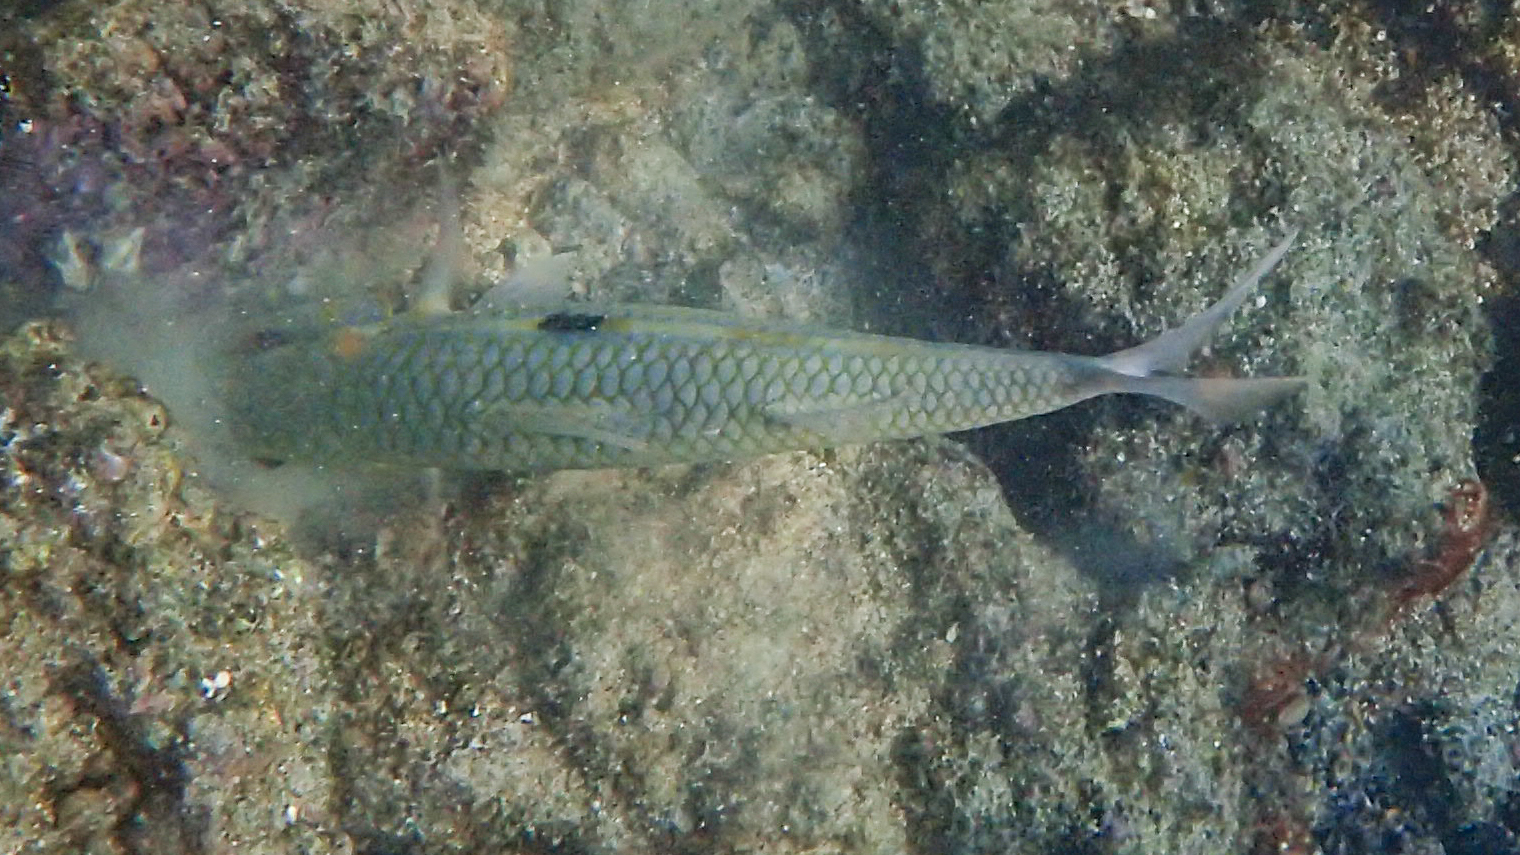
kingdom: Animalia
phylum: Chordata
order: Perciformes
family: Mullidae
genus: Mulloidichthys
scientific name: Mulloidichthys flavolineatus
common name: Yellowstripe goatfish
